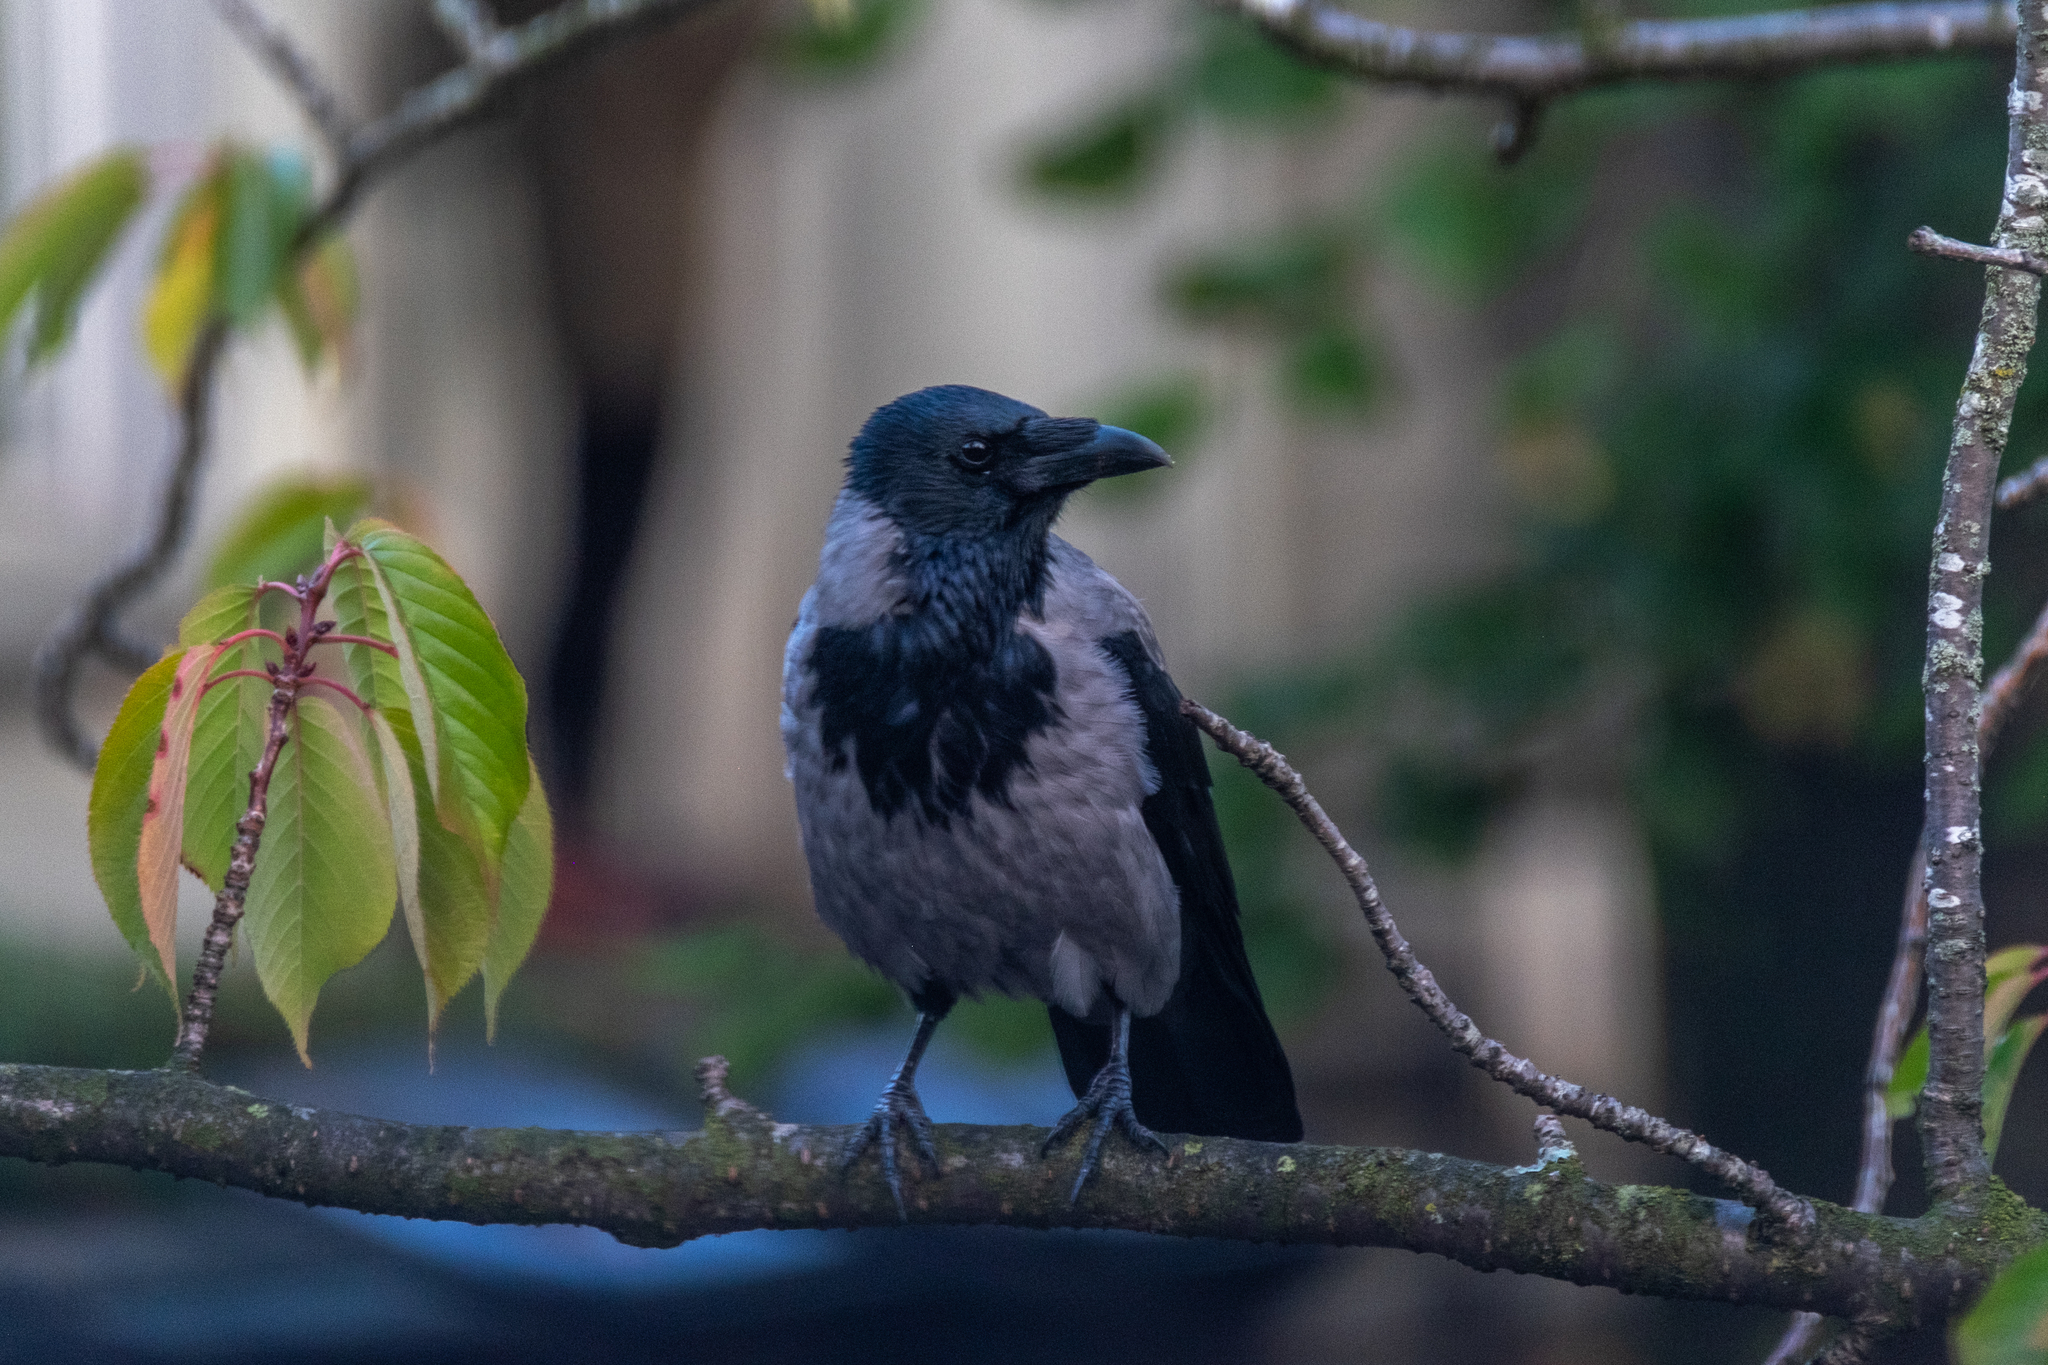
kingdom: Animalia
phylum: Chordata
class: Aves
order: Passeriformes
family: Corvidae
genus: Corvus
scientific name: Corvus cornix
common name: Hooded crow
